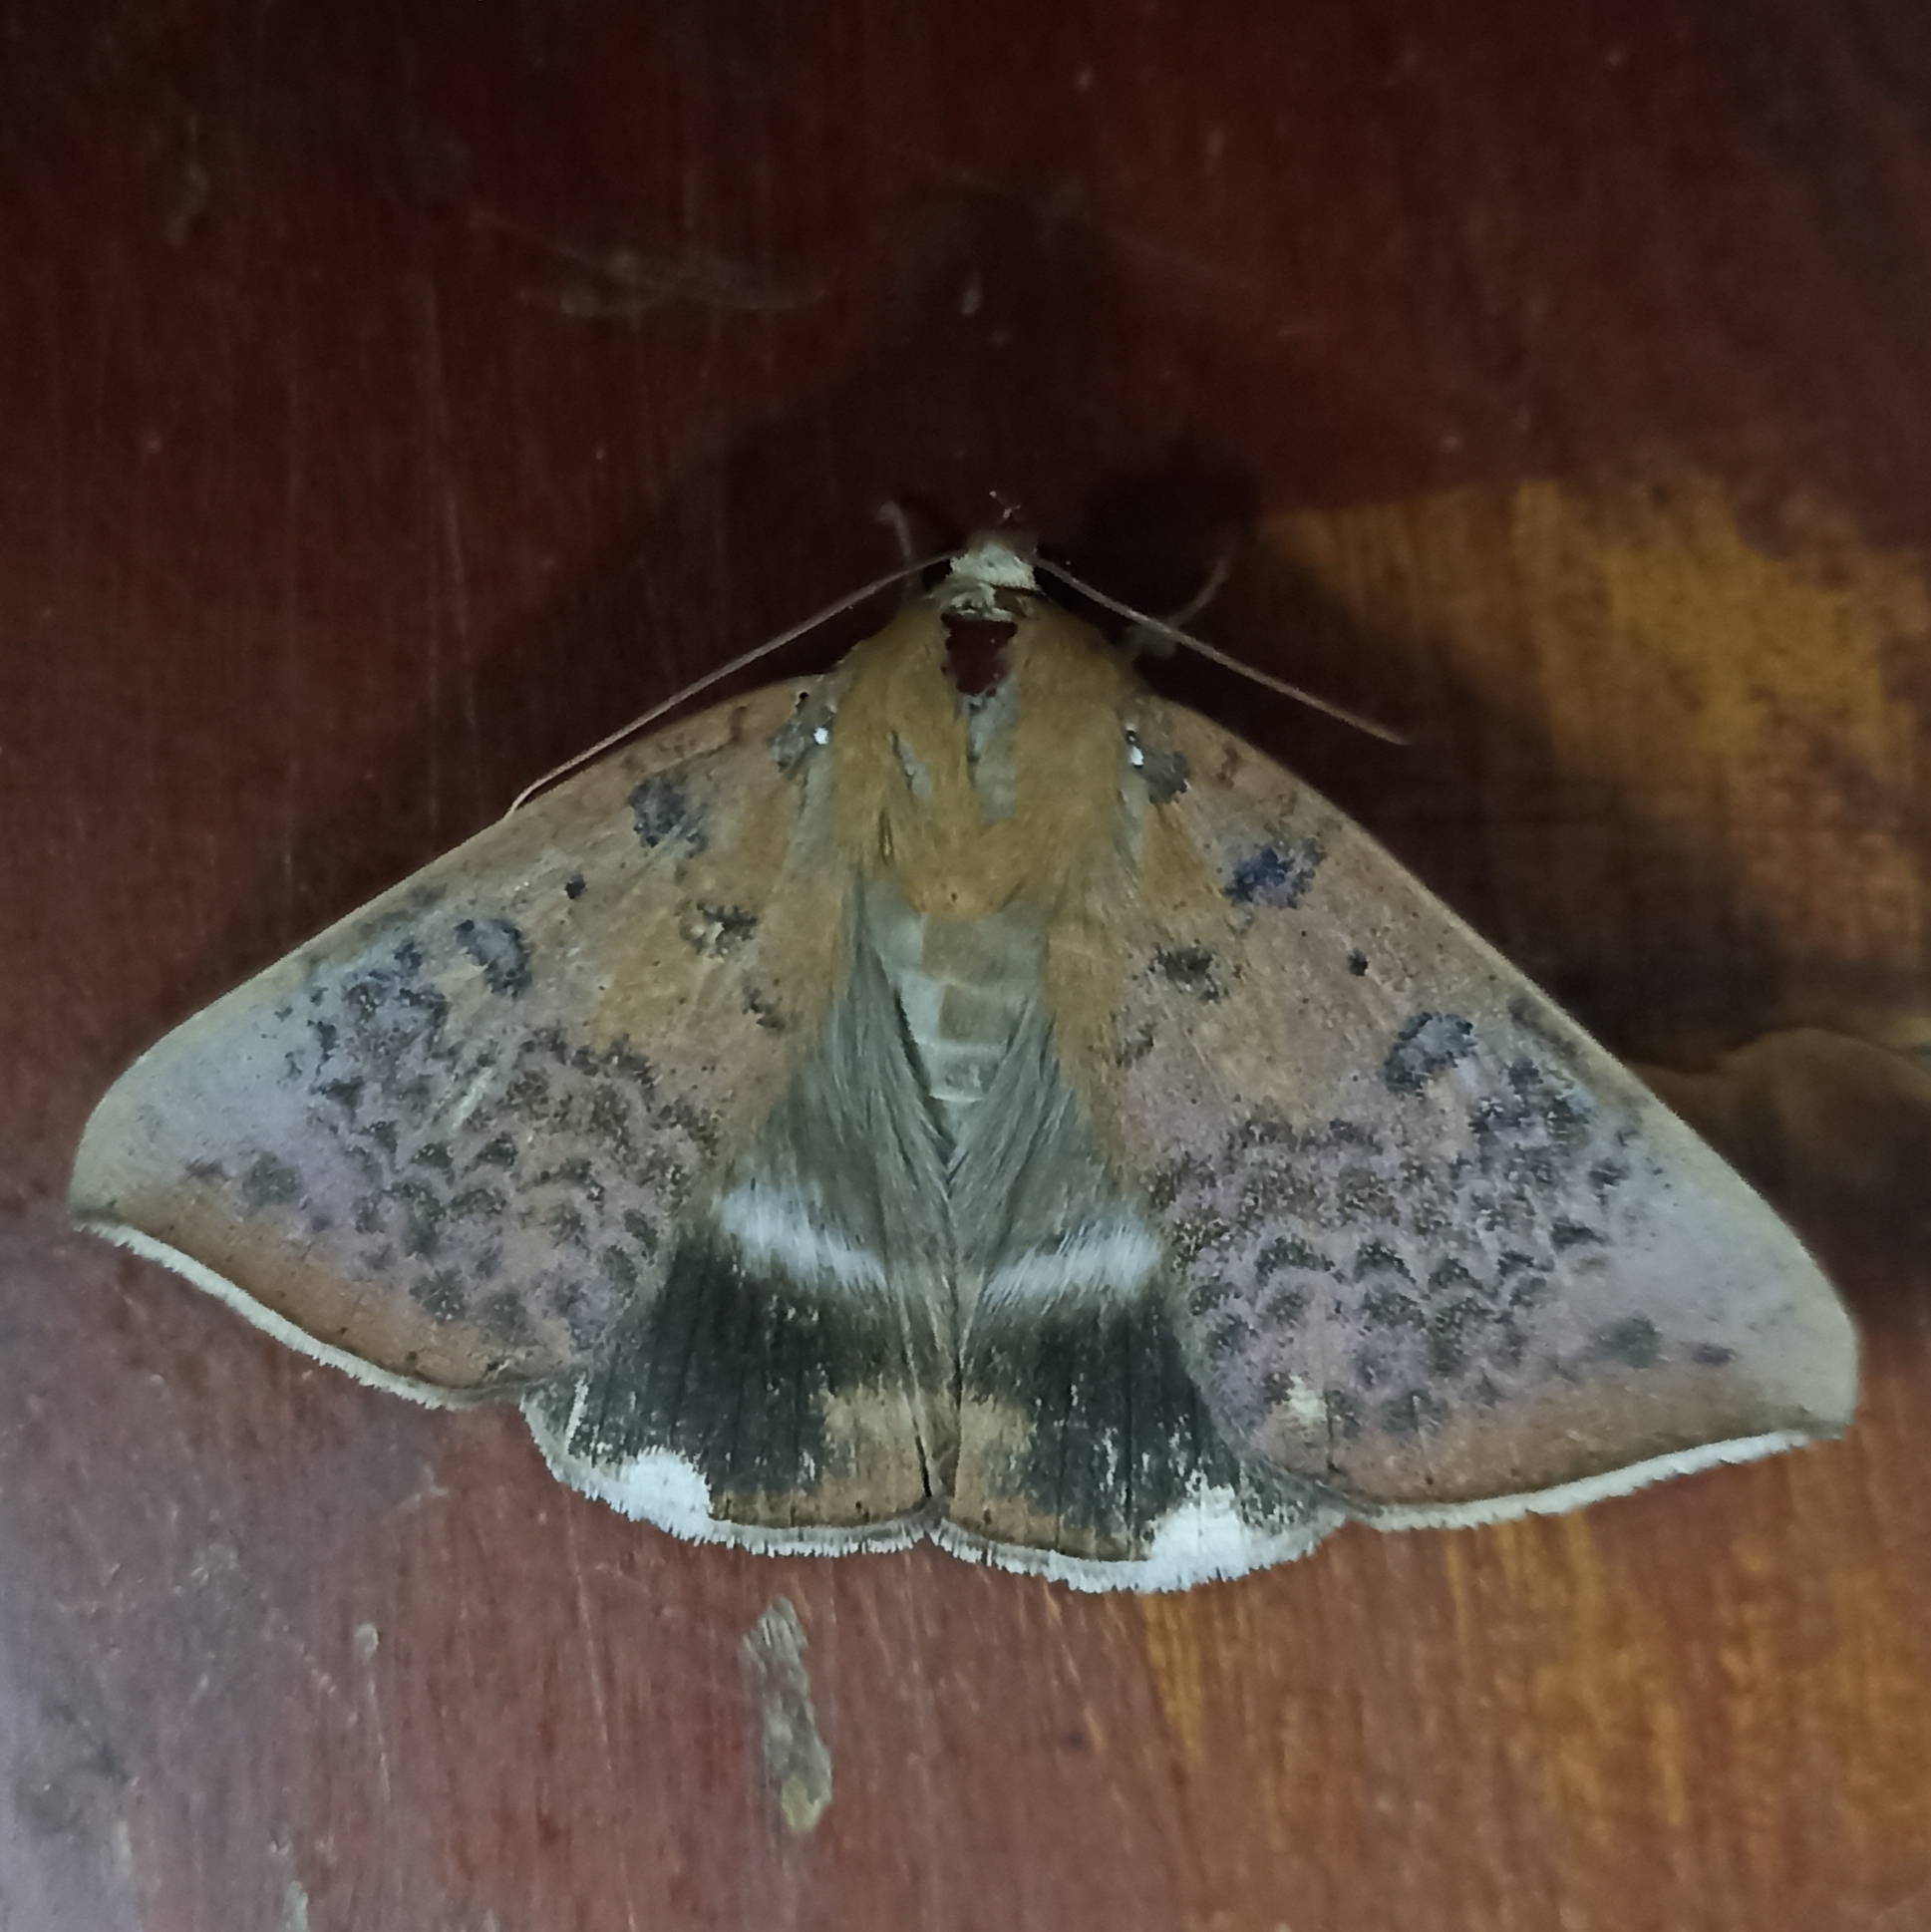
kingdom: Animalia
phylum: Arthropoda
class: Insecta
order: Lepidoptera
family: Erebidae
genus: Achaea
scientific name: Achaea serva
